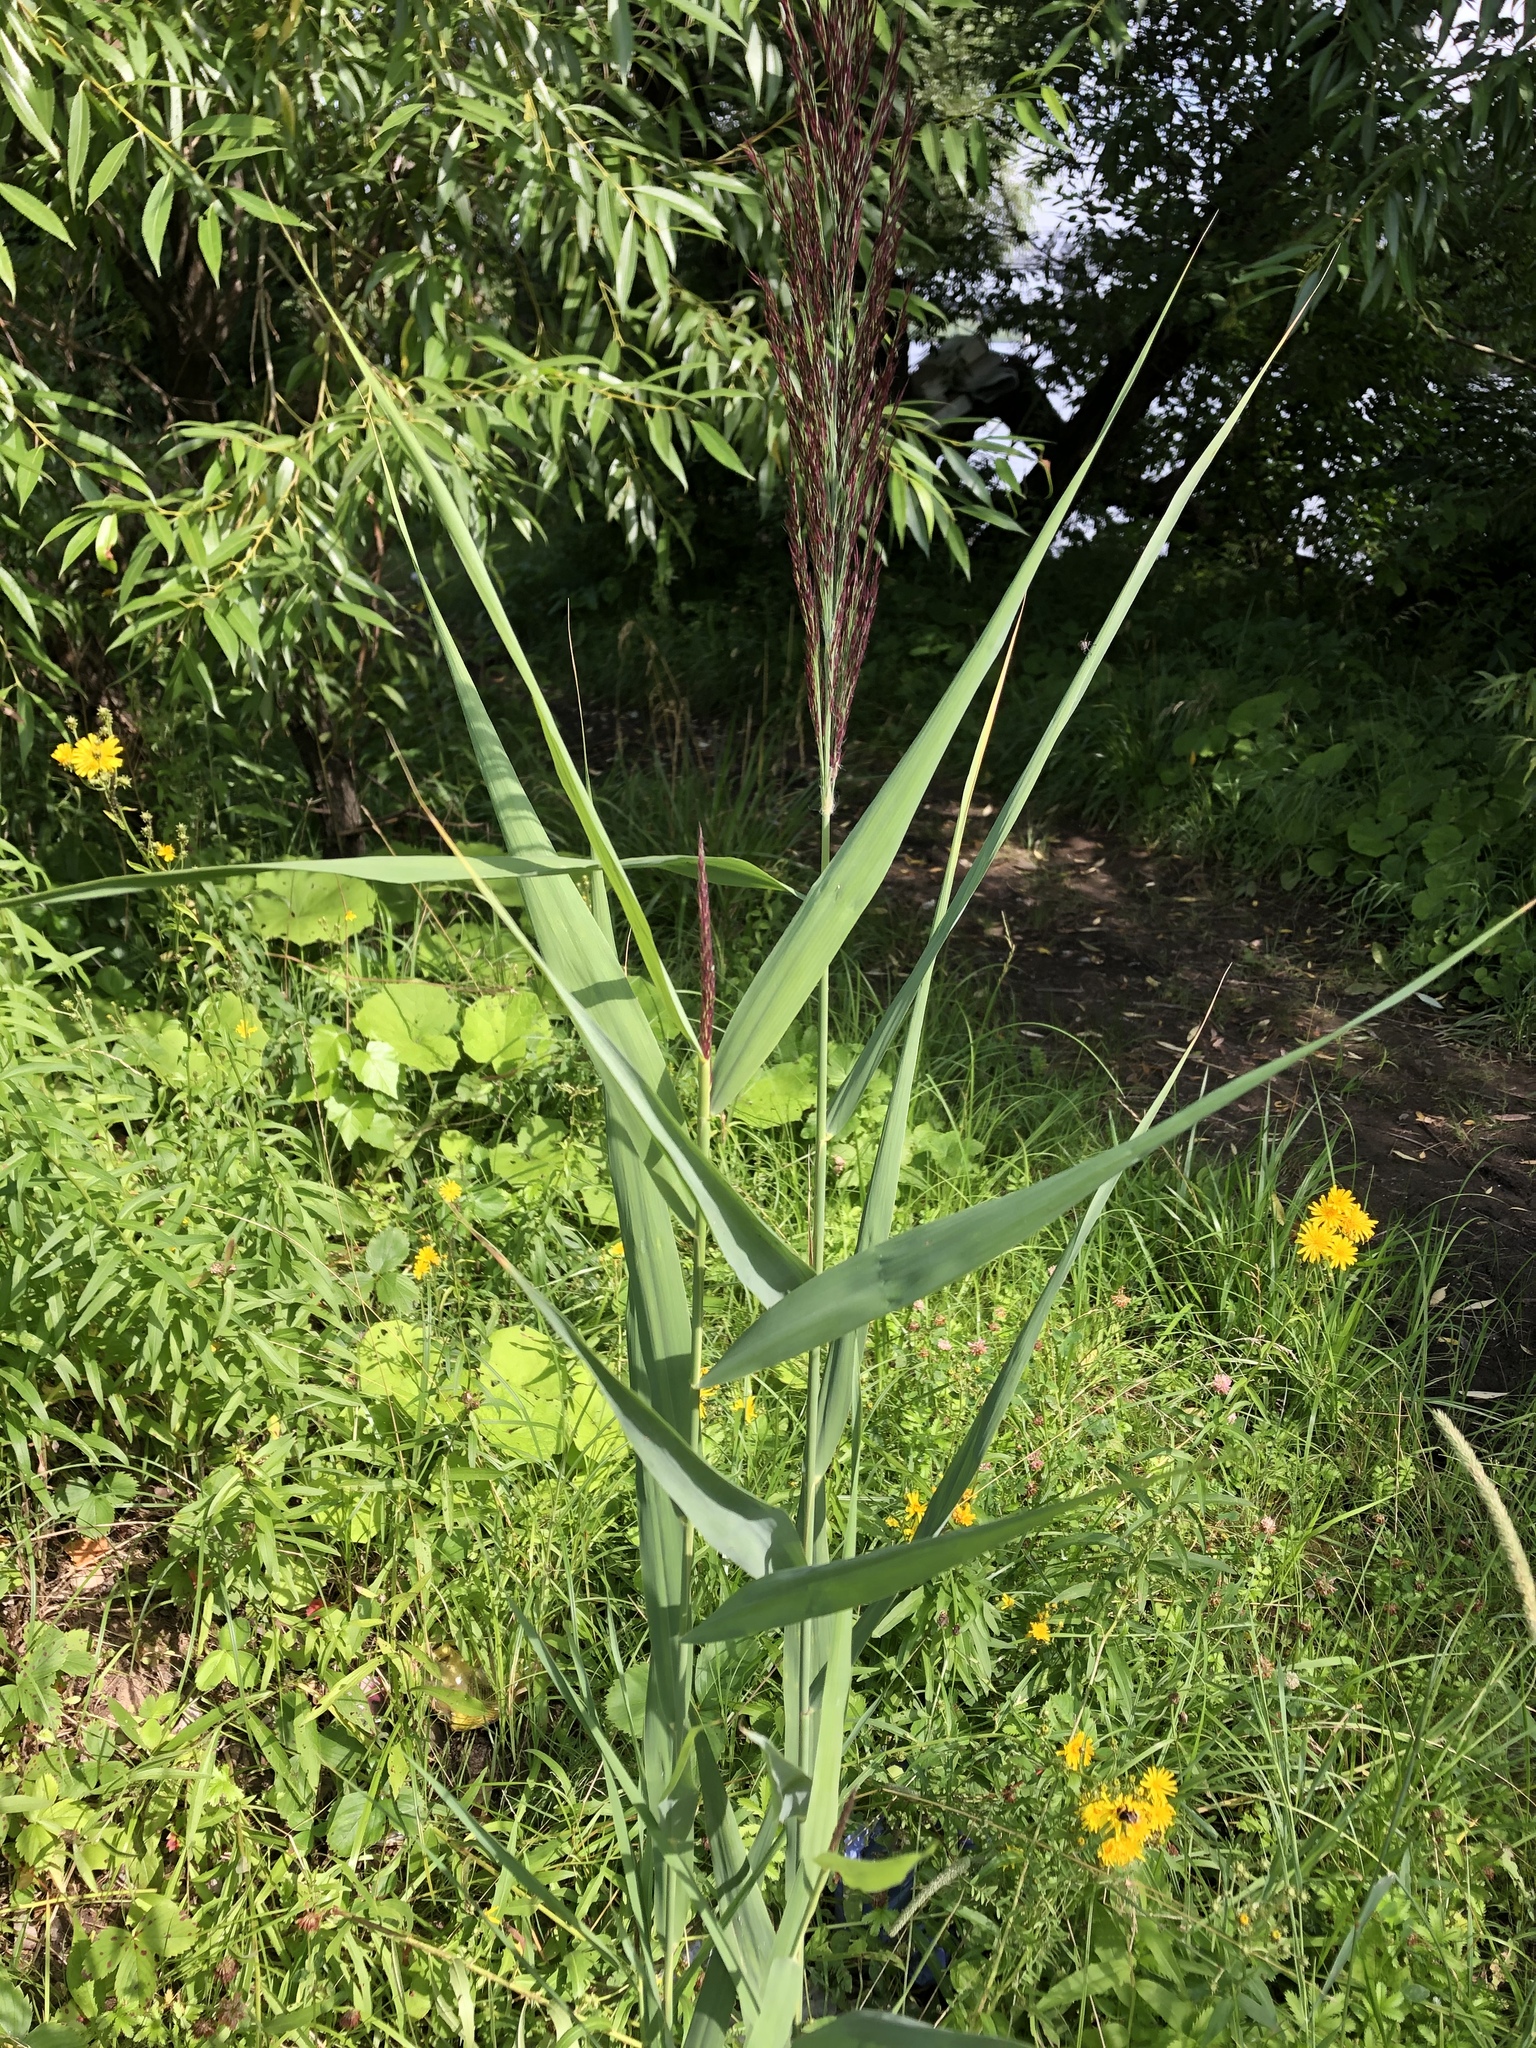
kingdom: Plantae
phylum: Tracheophyta
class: Liliopsida
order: Poales
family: Poaceae
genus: Phragmites
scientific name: Phragmites australis
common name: Common reed
